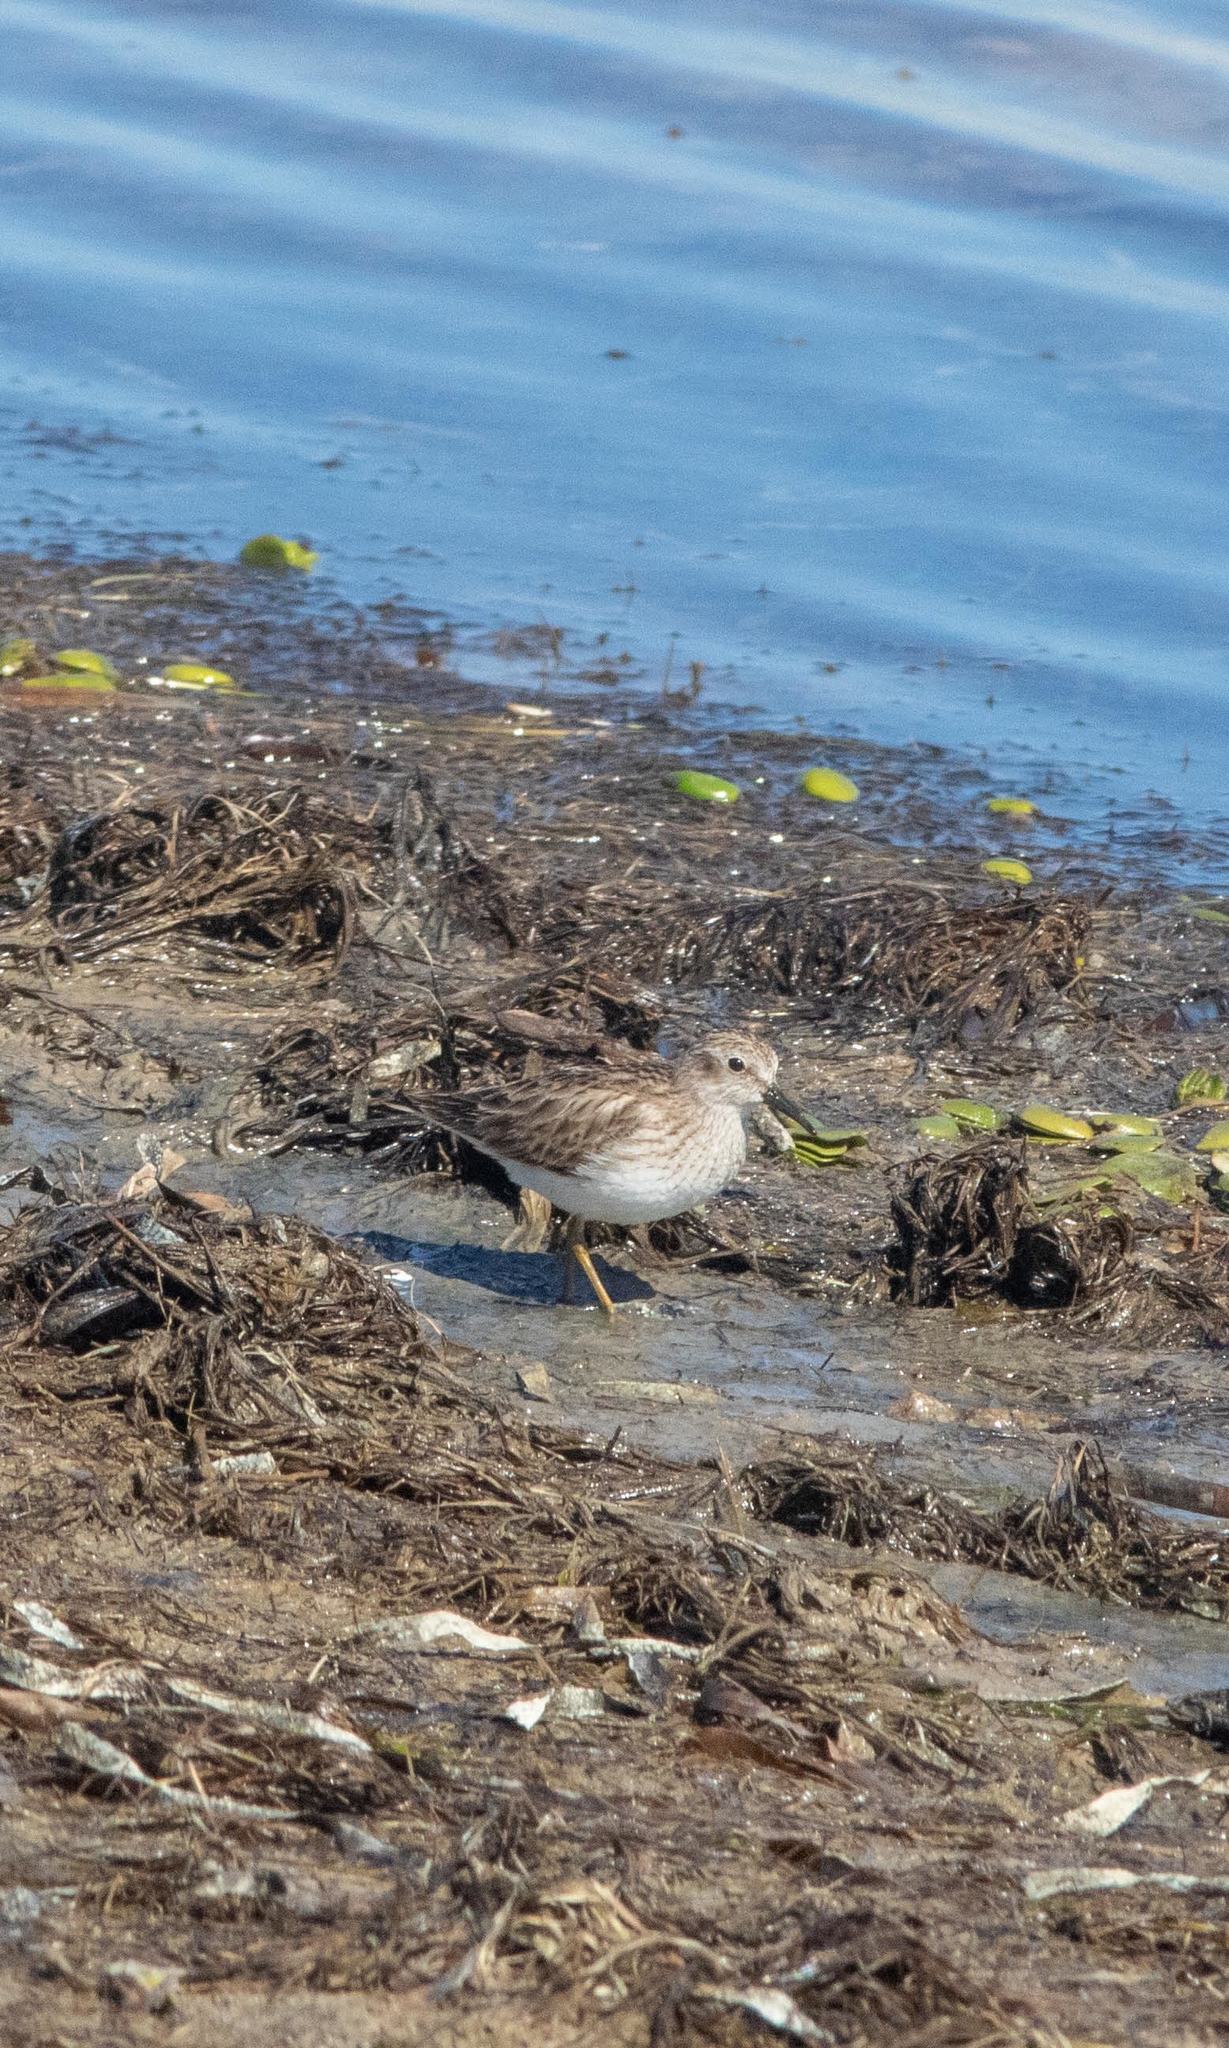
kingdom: Animalia
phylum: Chordata
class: Aves
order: Charadriiformes
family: Scolopacidae
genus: Calidris
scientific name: Calidris minutilla
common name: Least sandpiper
